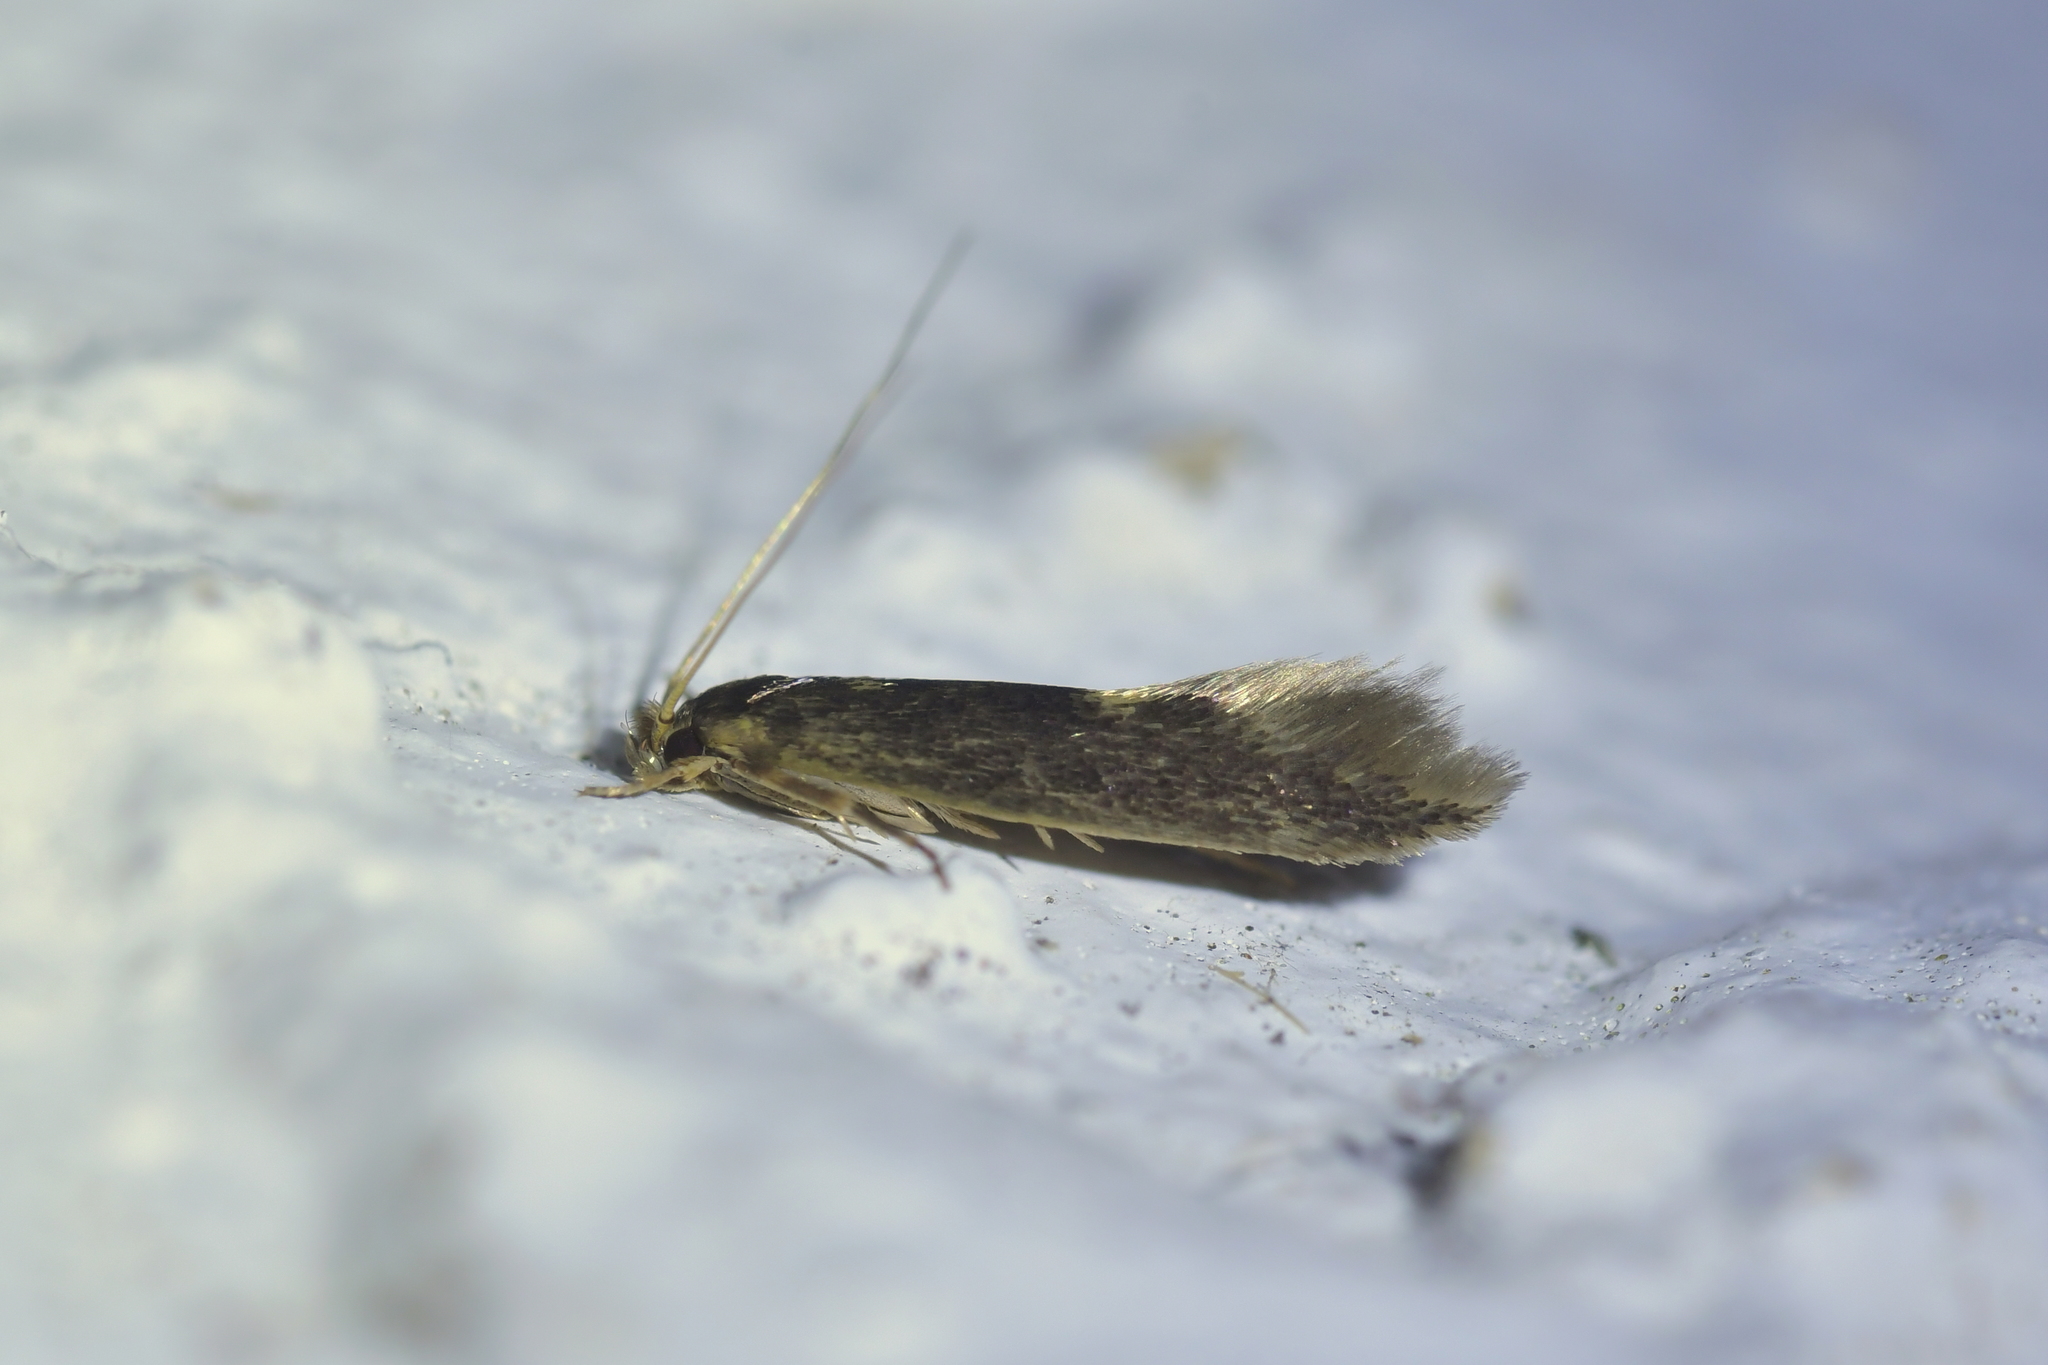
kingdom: Animalia
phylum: Arthropoda
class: Insecta
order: Lepidoptera
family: Tineidae
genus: Opogona
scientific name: Opogona omoscopa
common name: Moth
